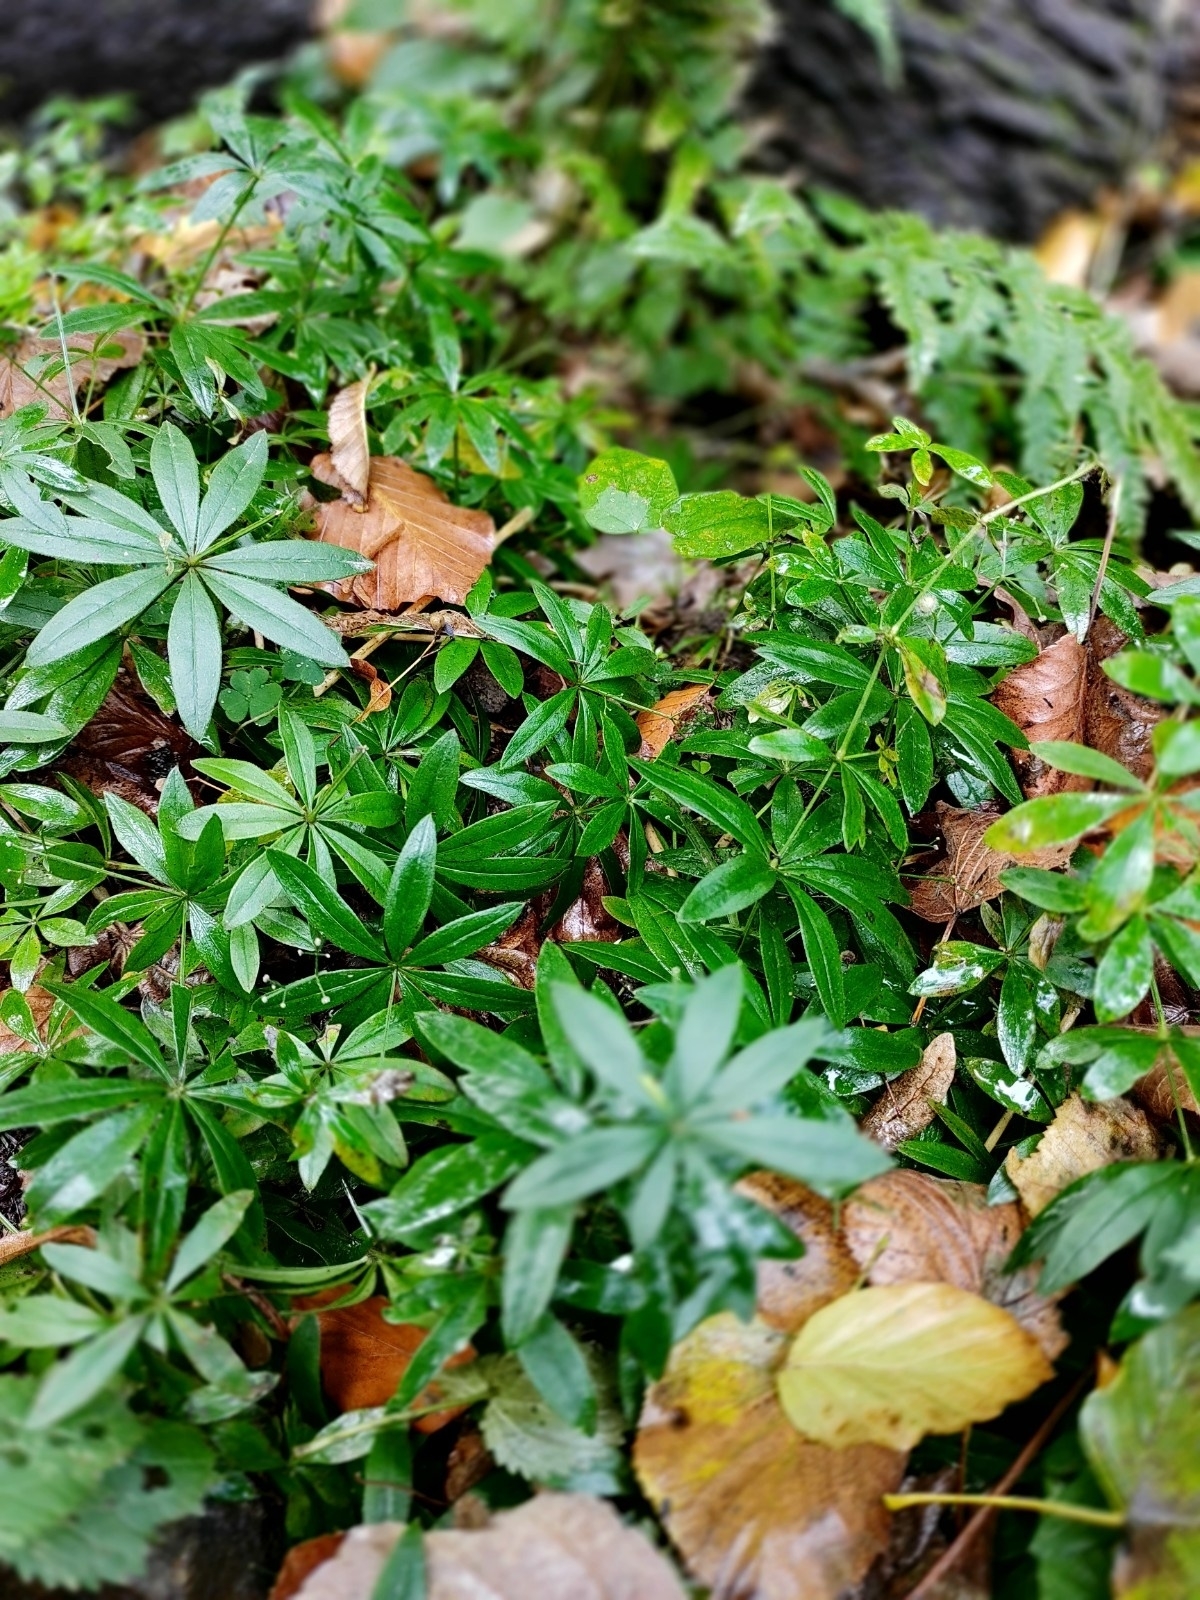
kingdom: Plantae
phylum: Tracheophyta
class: Magnoliopsida
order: Gentianales
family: Rubiaceae
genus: Galium
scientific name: Galium odoratum
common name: Sweet woodruff
